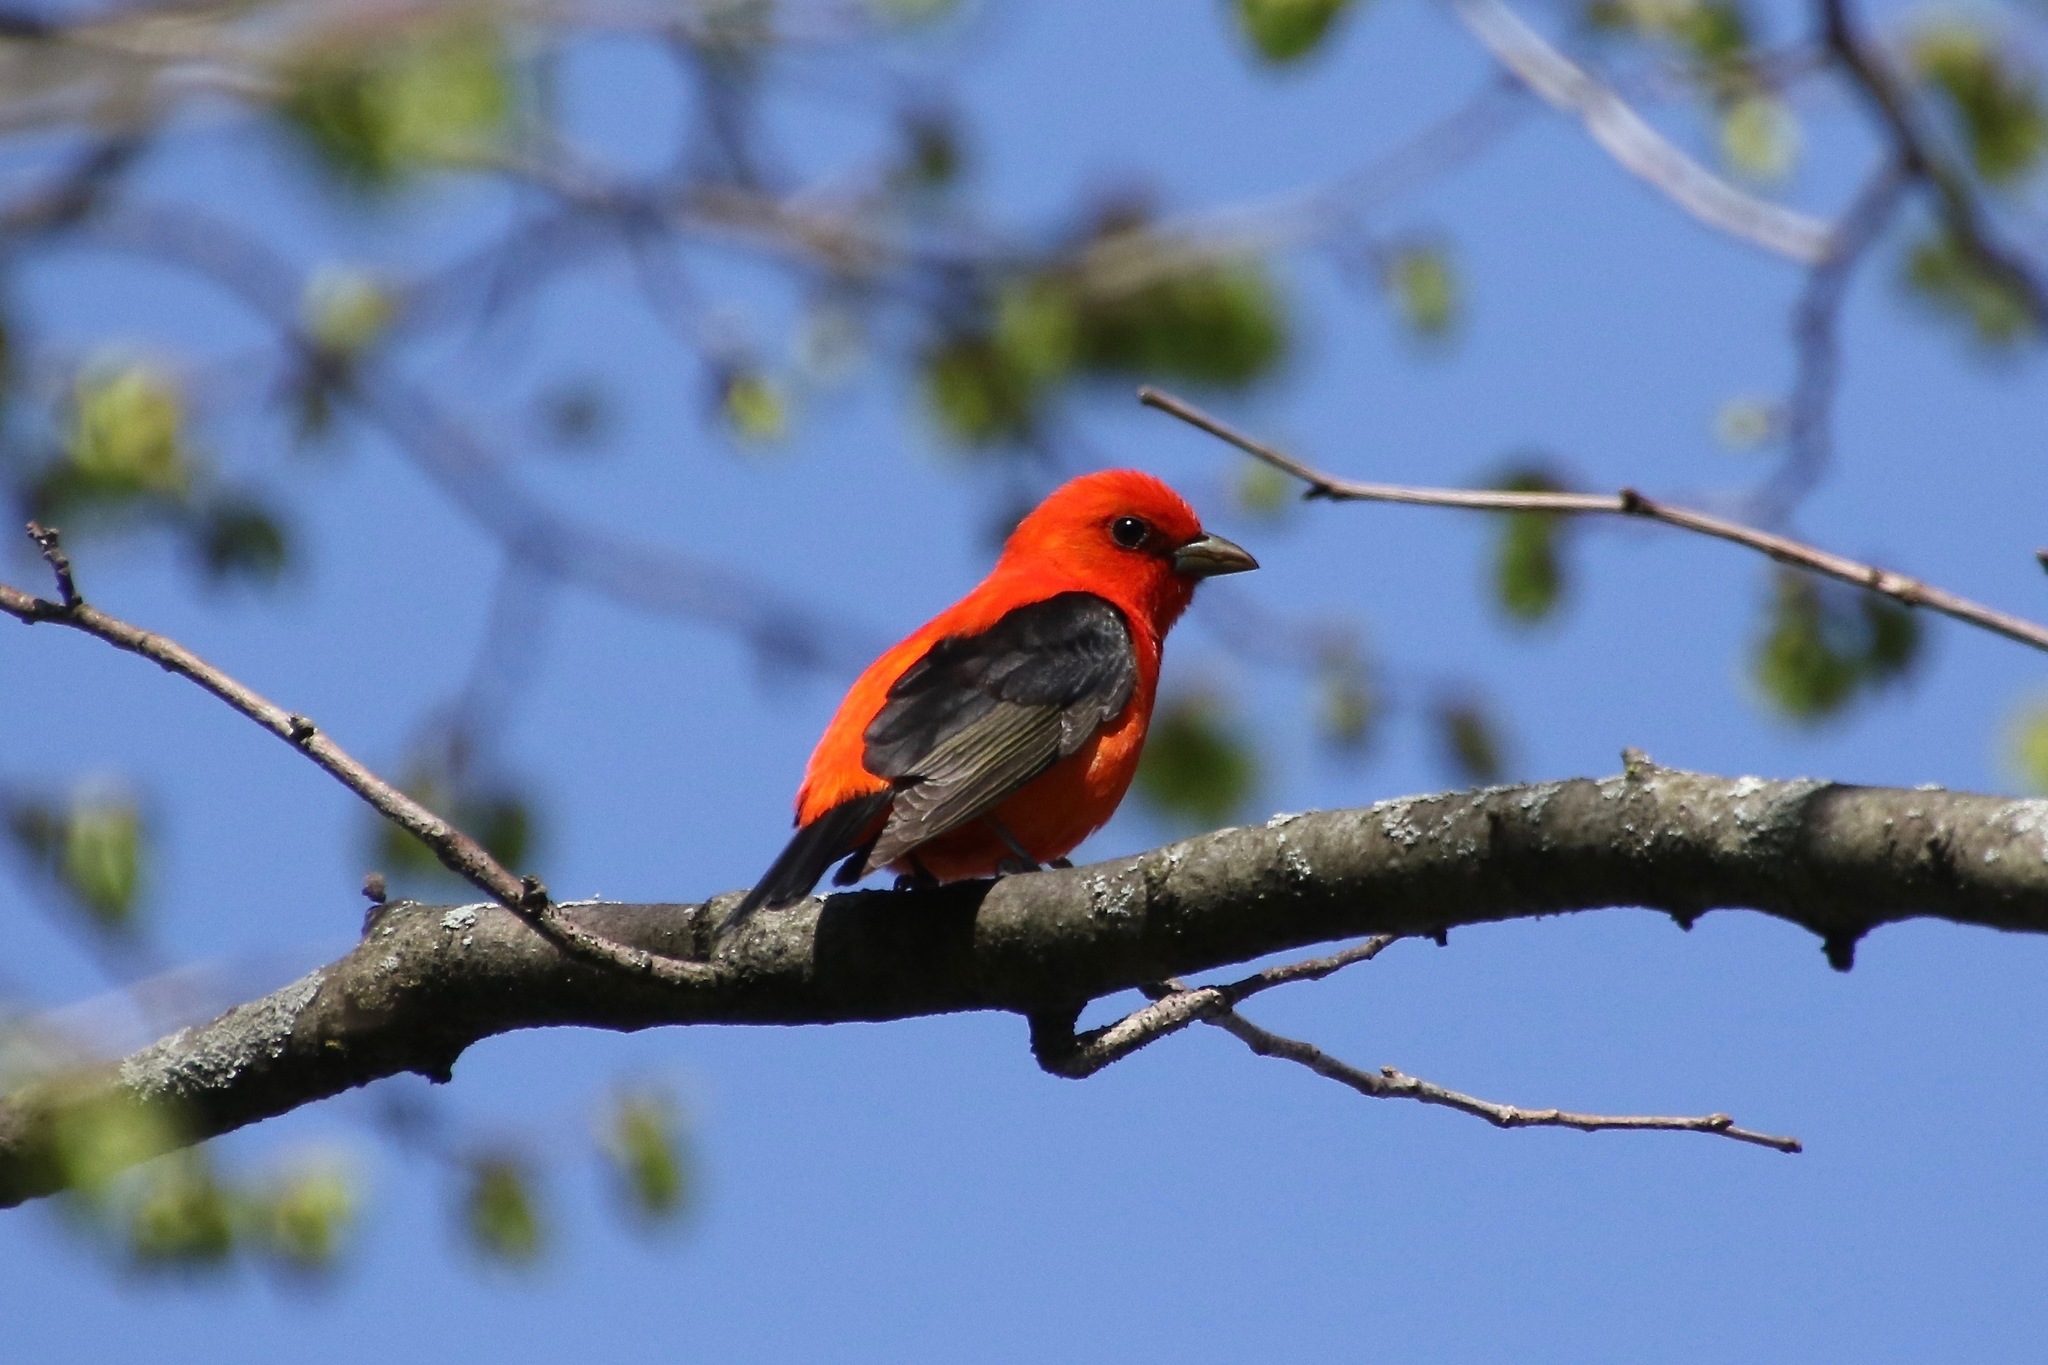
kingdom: Animalia
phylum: Chordata
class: Aves
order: Passeriformes
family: Cardinalidae
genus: Piranga
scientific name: Piranga olivacea
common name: Scarlet tanager
